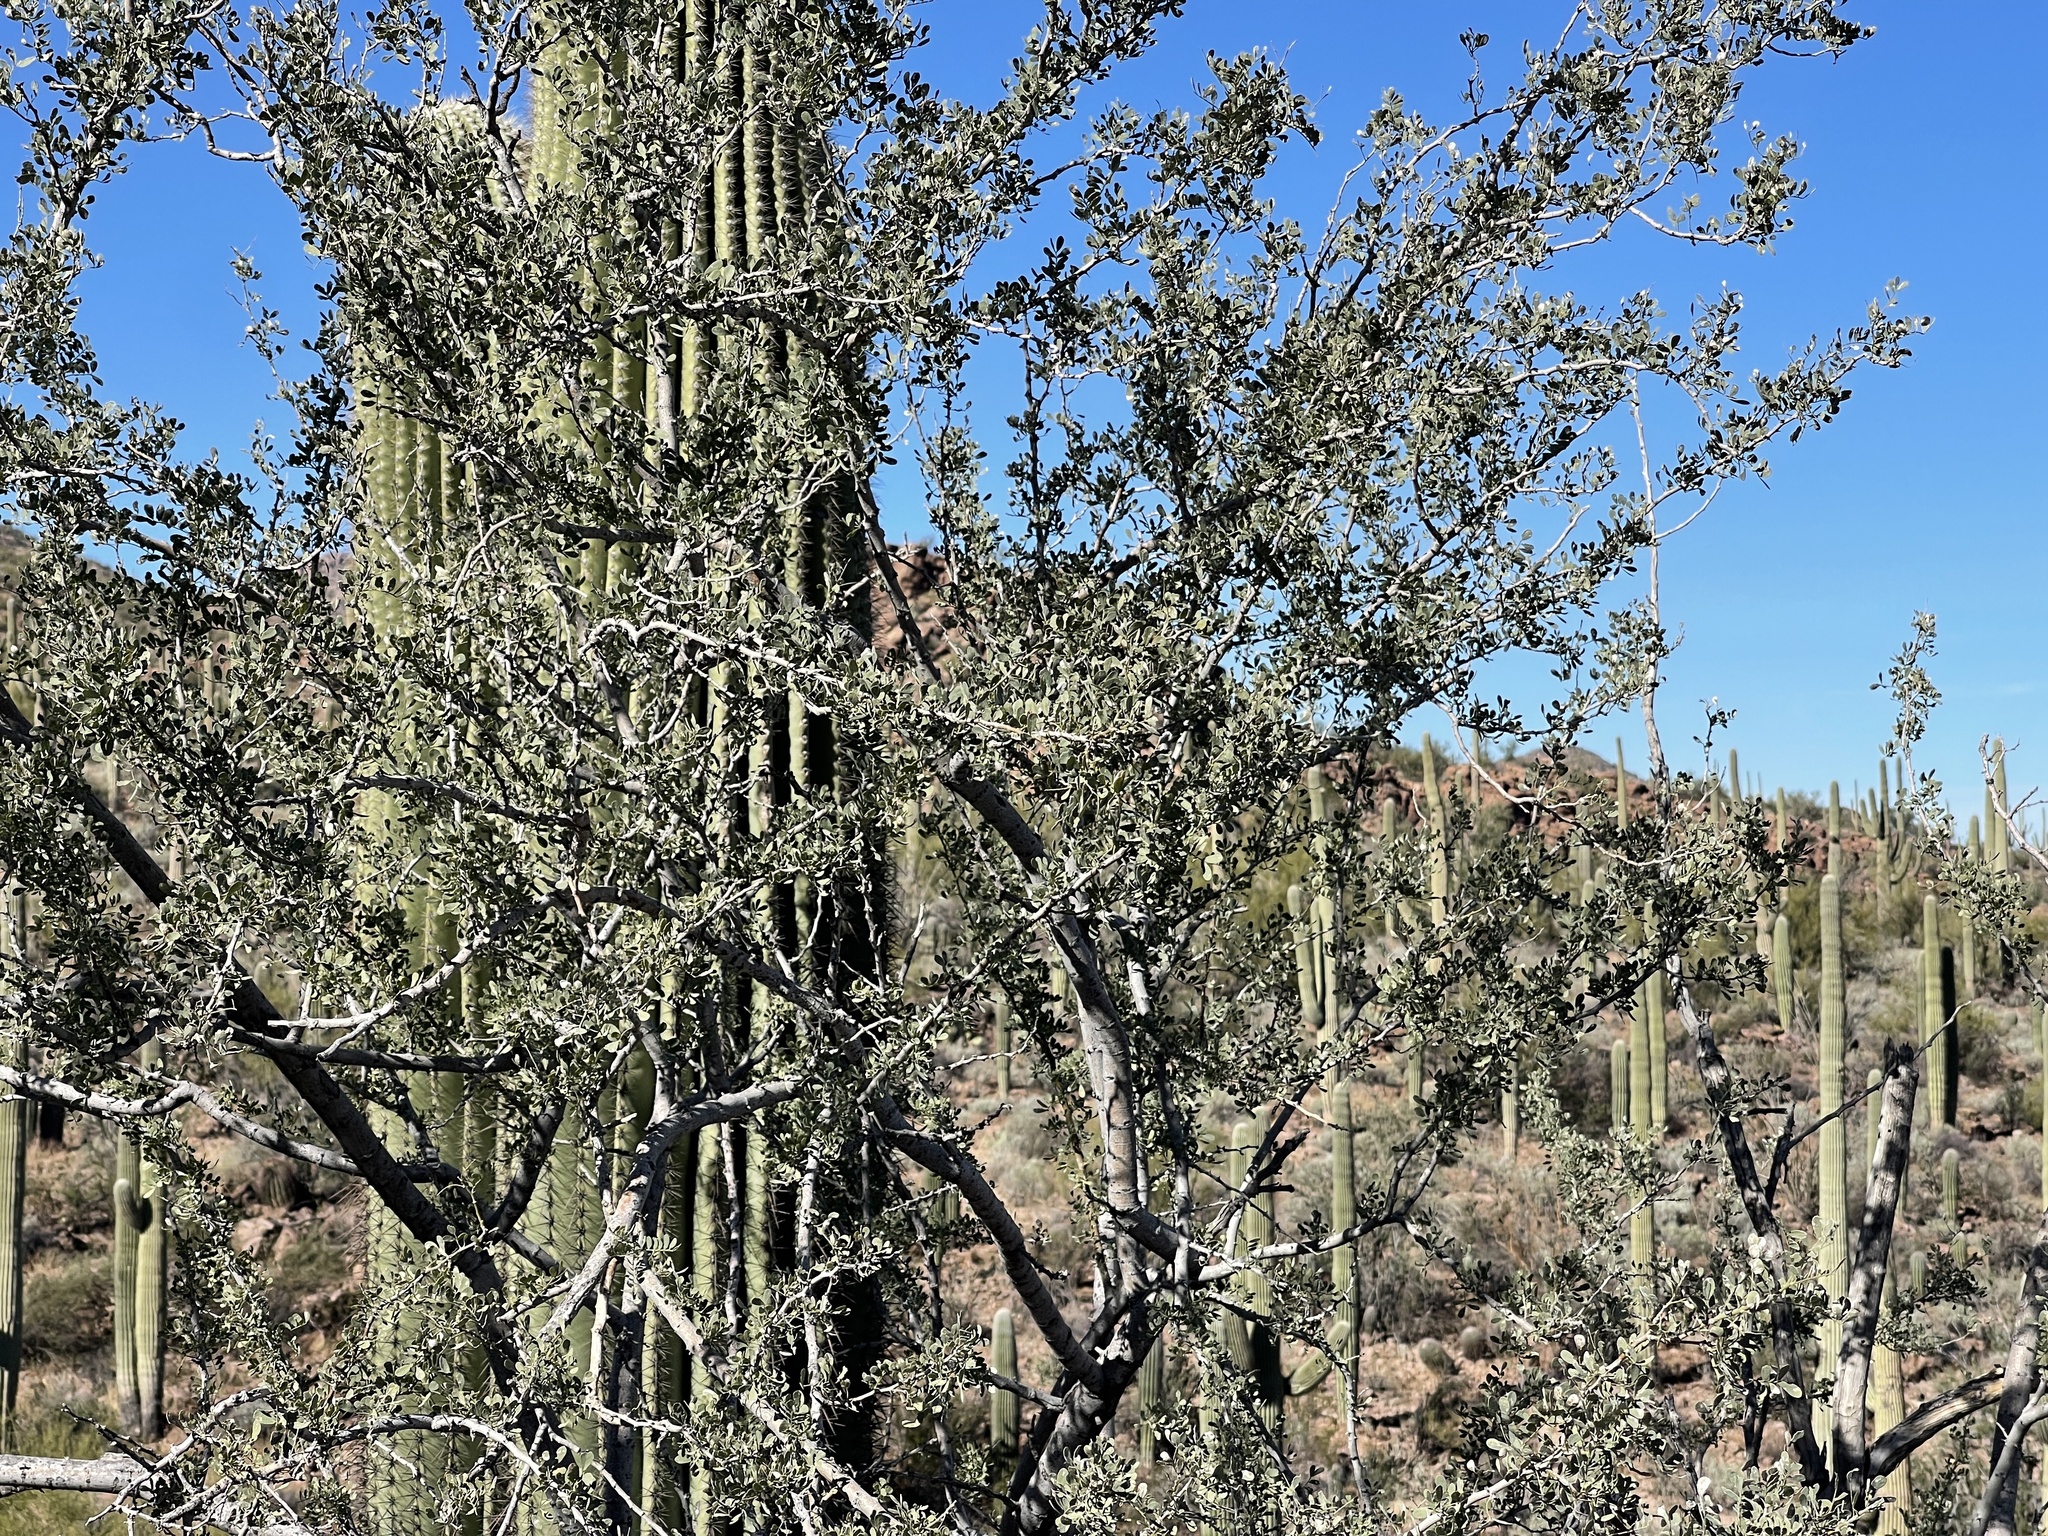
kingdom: Plantae
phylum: Tracheophyta
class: Magnoliopsida
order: Fabales
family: Fabaceae
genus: Olneya
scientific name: Olneya tesota
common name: Desert ironwood
